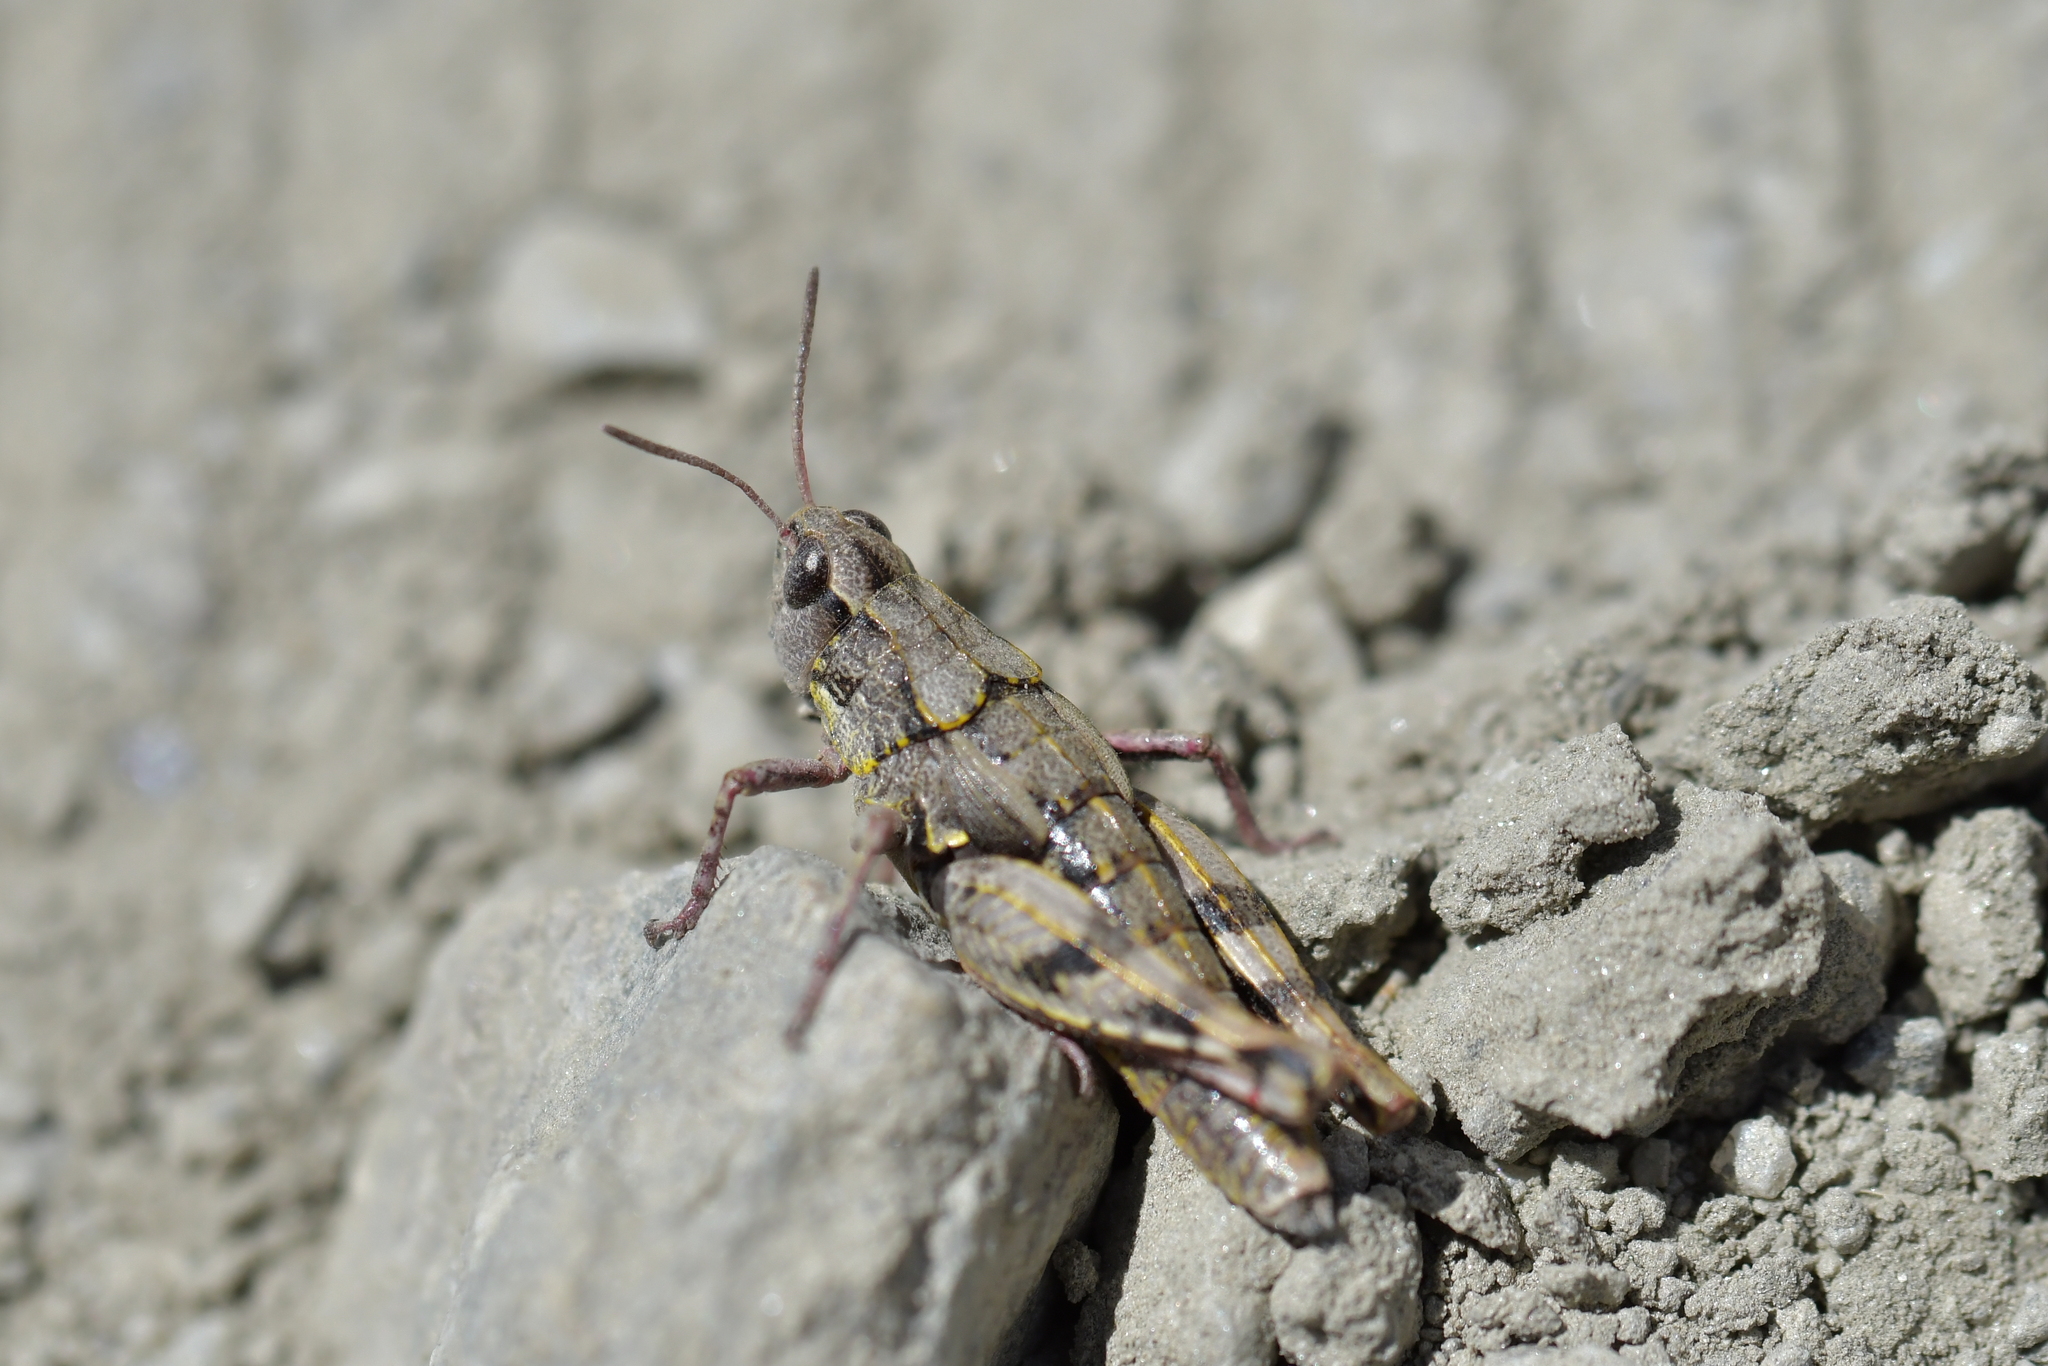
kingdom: Animalia
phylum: Arthropoda
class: Insecta
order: Orthoptera
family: Acrididae
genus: Sigaus
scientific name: Sigaus australis
